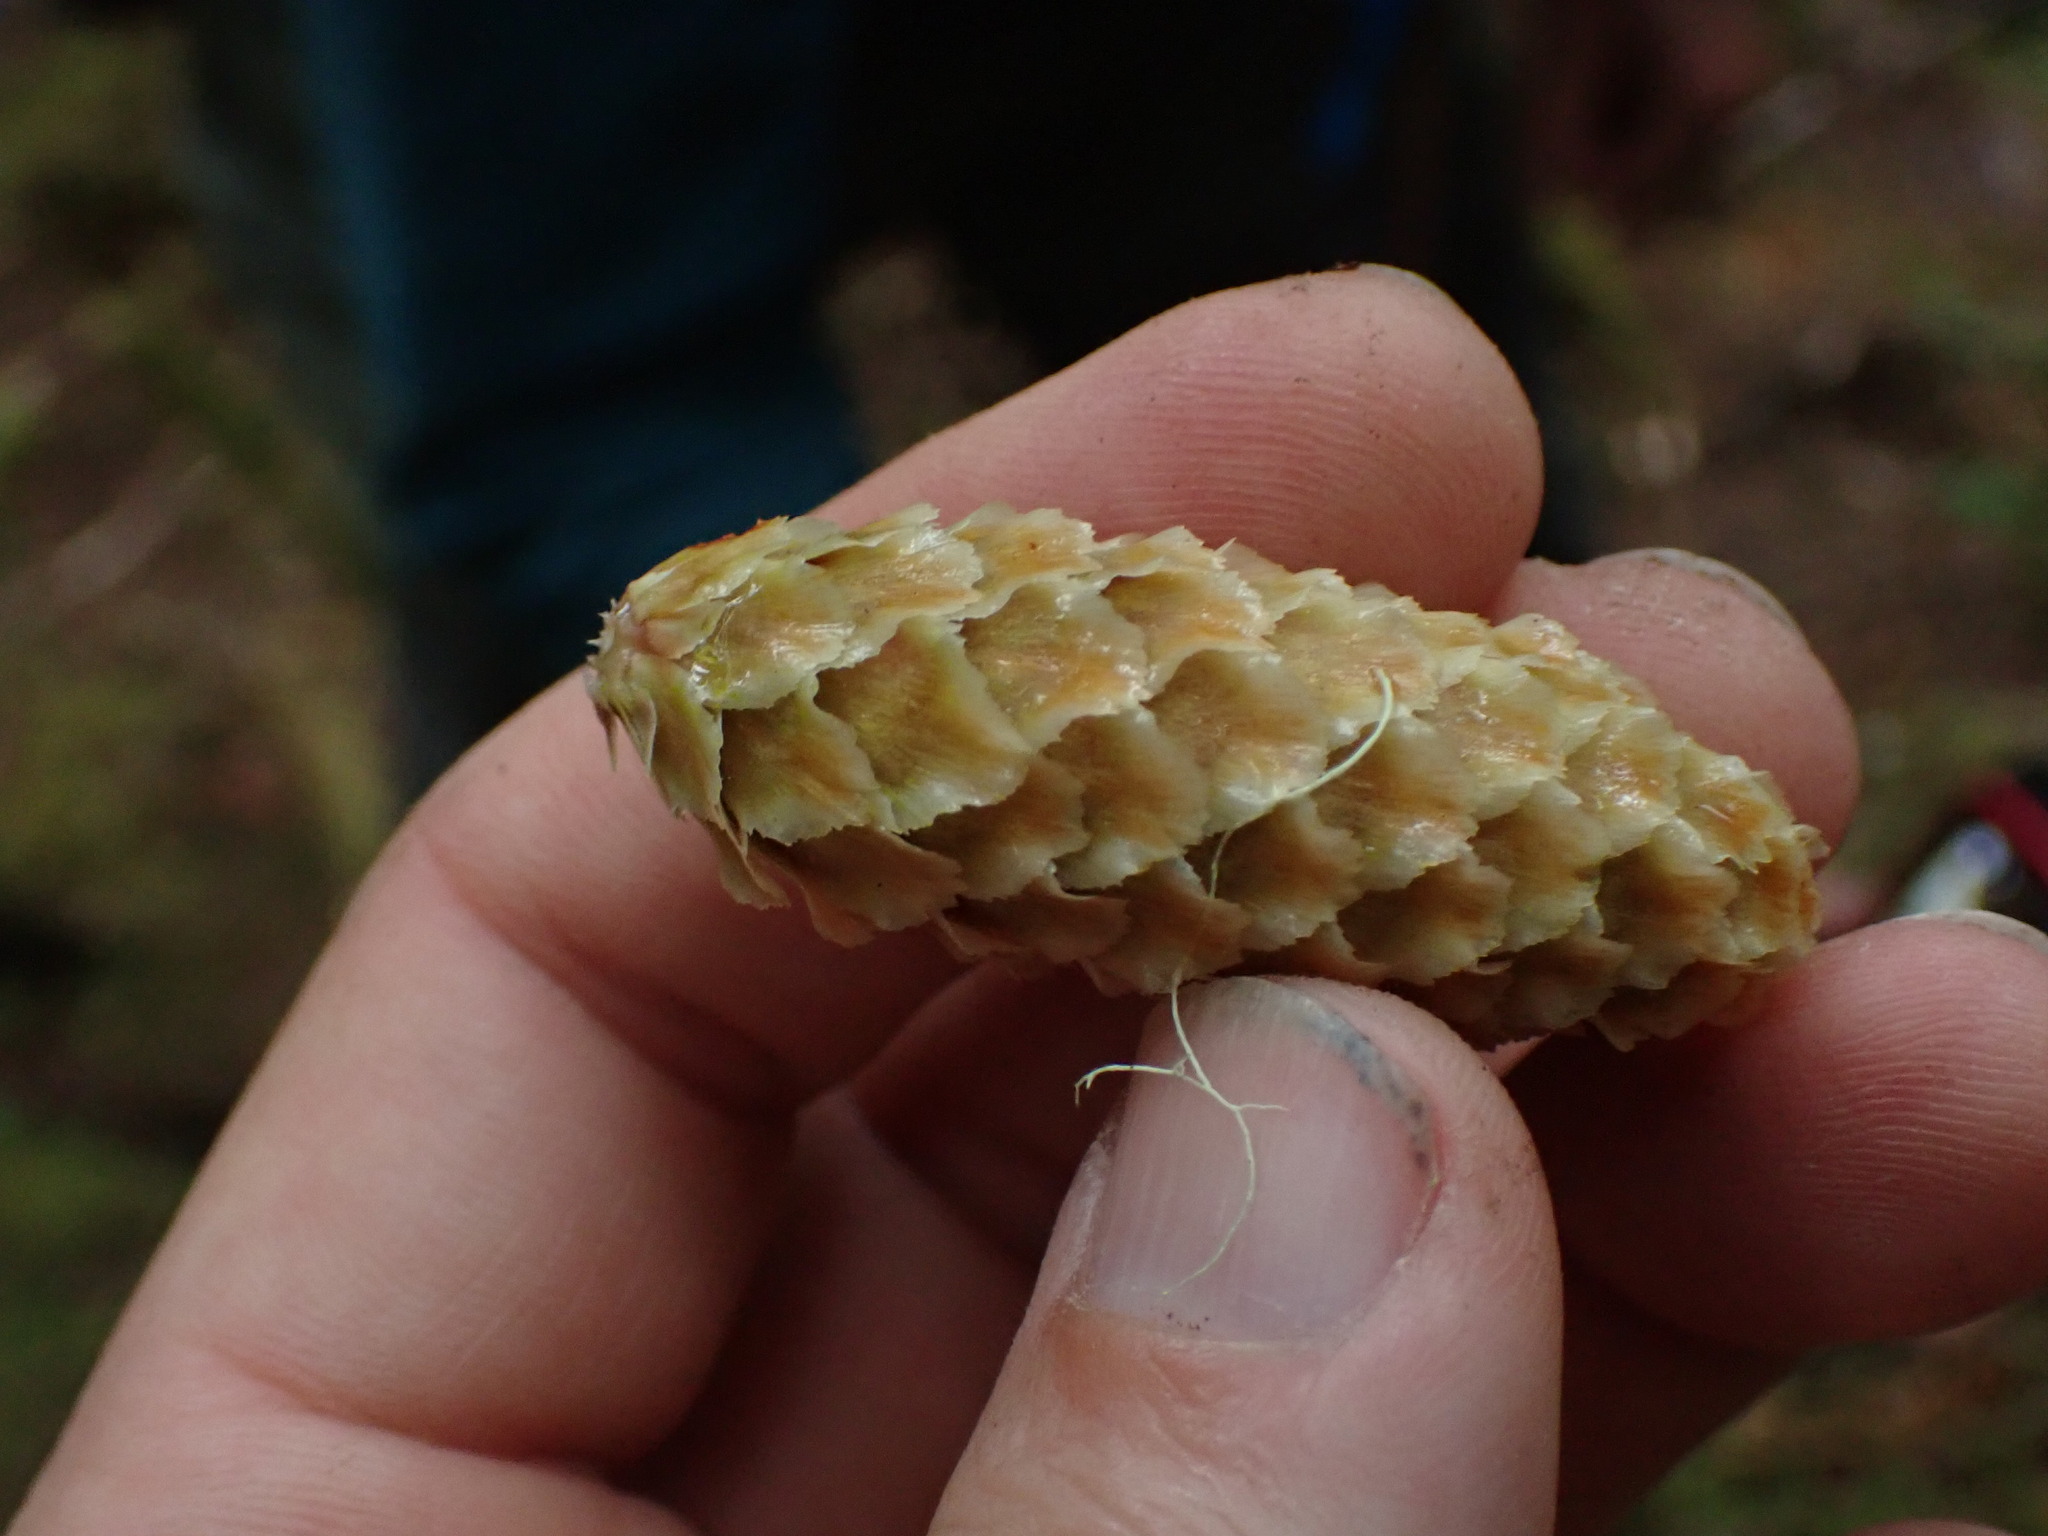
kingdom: Plantae
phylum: Tracheophyta
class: Pinopsida
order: Pinales
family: Pinaceae
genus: Picea
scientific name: Picea sitchensis
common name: Sitka spruce
